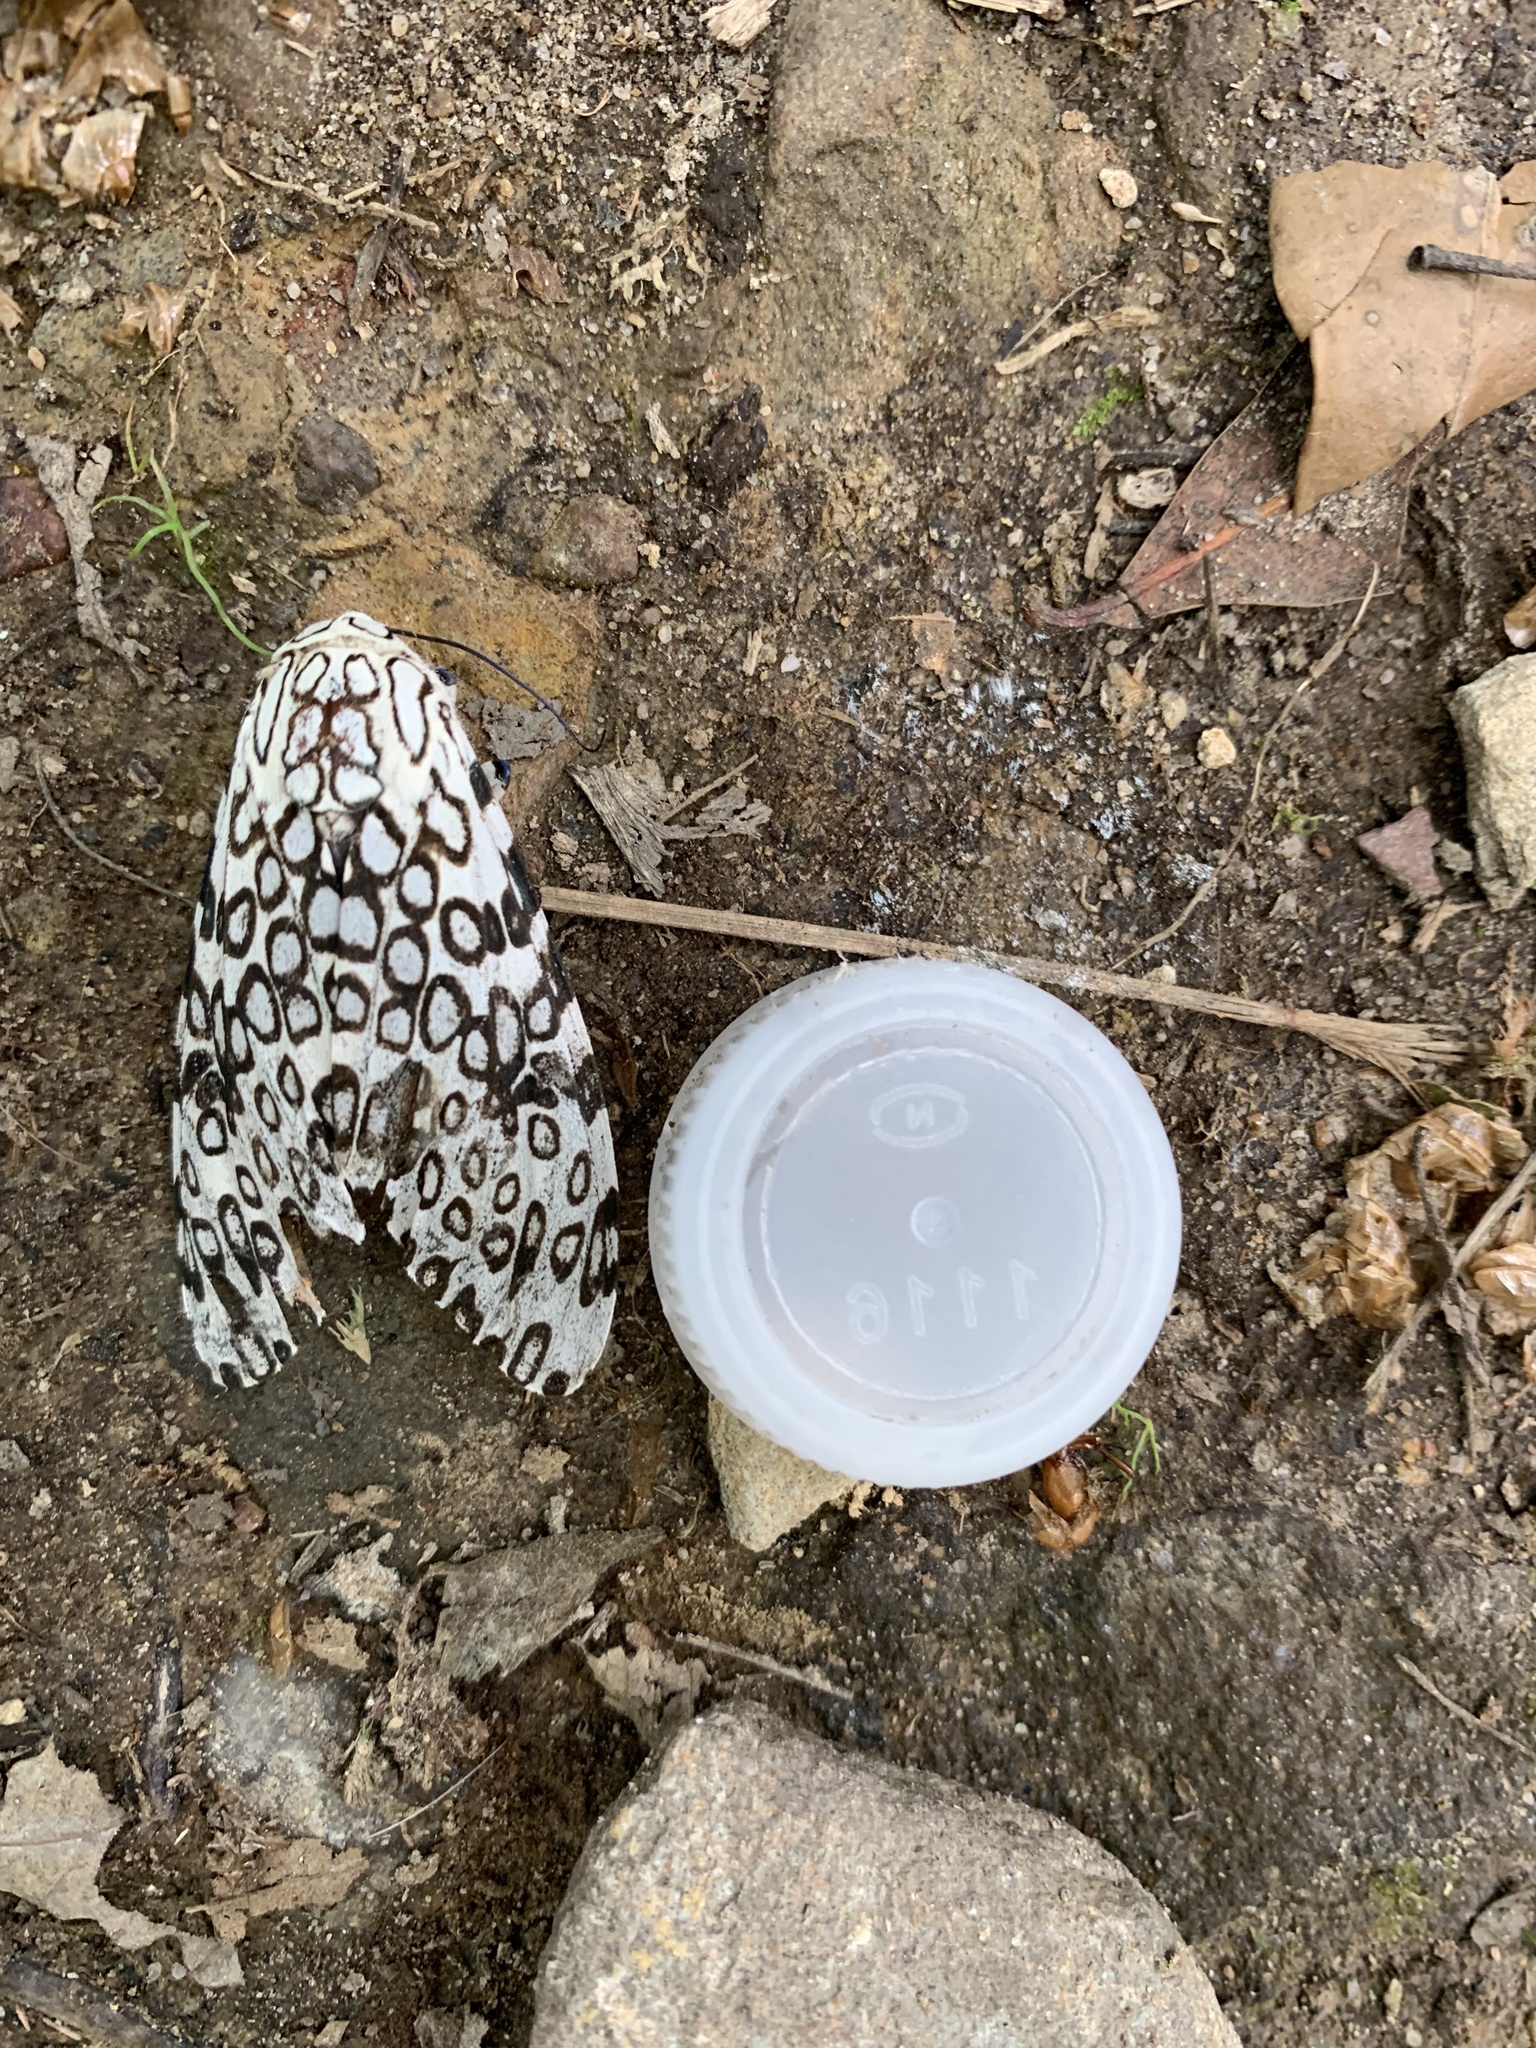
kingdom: Animalia
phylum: Arthropoda
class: Insecta
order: Lepidoptera
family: Erebidae
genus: Hypercompe
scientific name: Hypercompe scribonia
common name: Giant leopard moth
